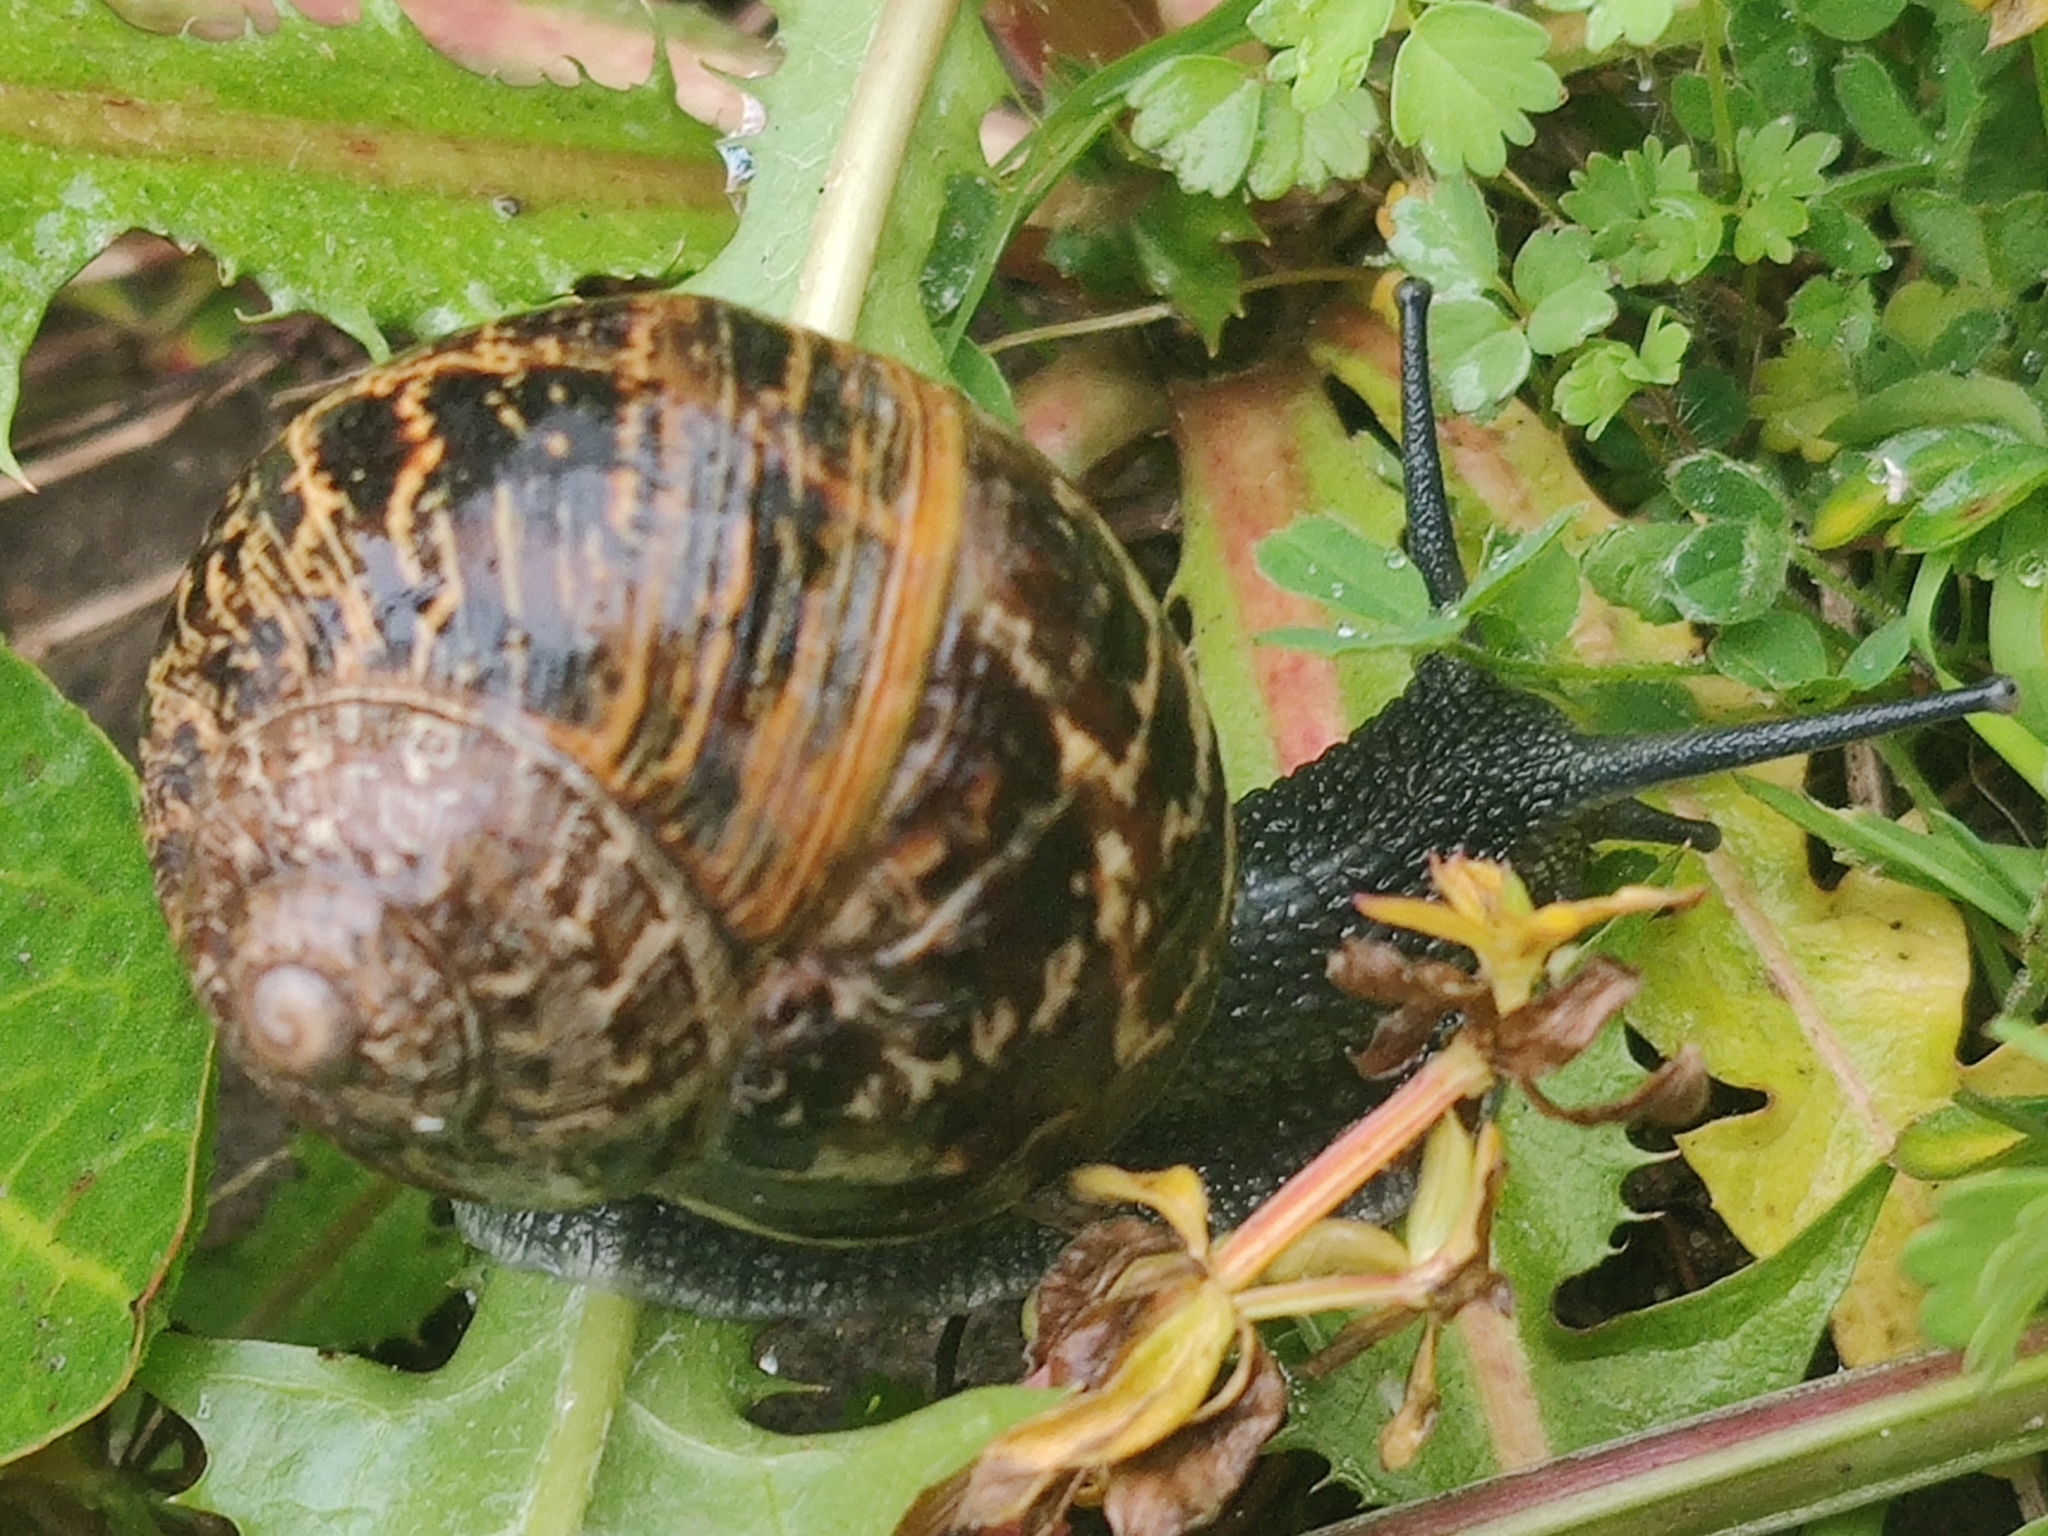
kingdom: Animalia
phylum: Mollusca
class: Gastropoda
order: Stylommatophora
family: Helicidae
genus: Cornu
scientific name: Cornu aspersum
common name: Brown garden snail
